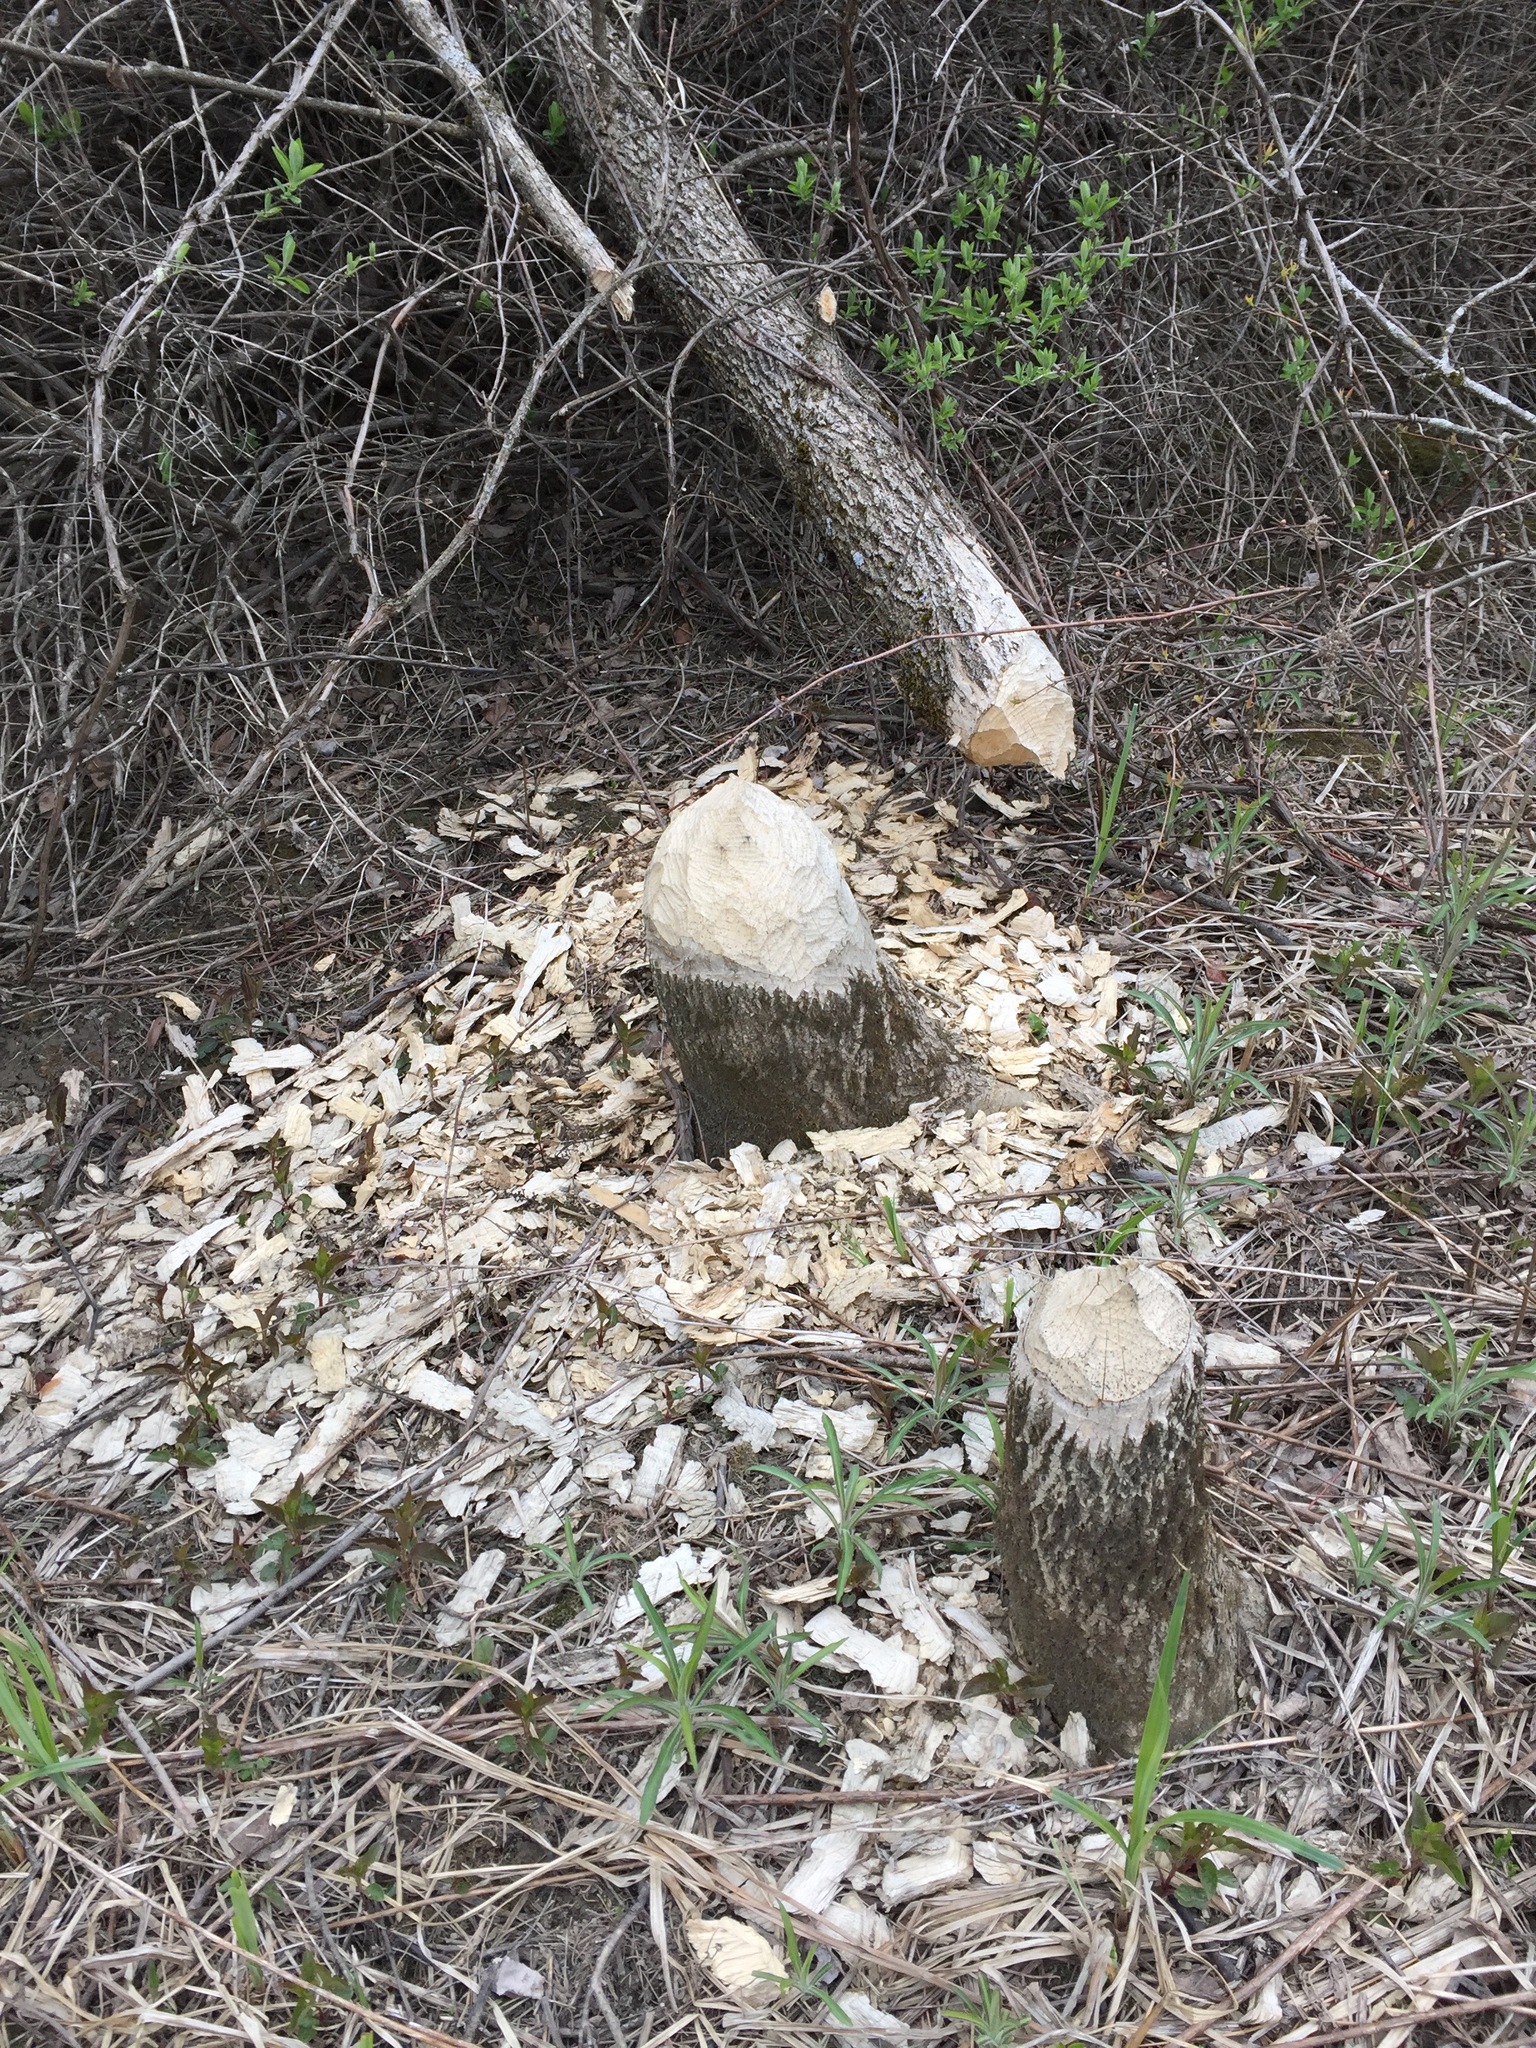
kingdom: Animalia
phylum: Chordata
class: Mammalia
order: Rodentia
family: Castoridae
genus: Castor
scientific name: Castor canadensis
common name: American beaver
